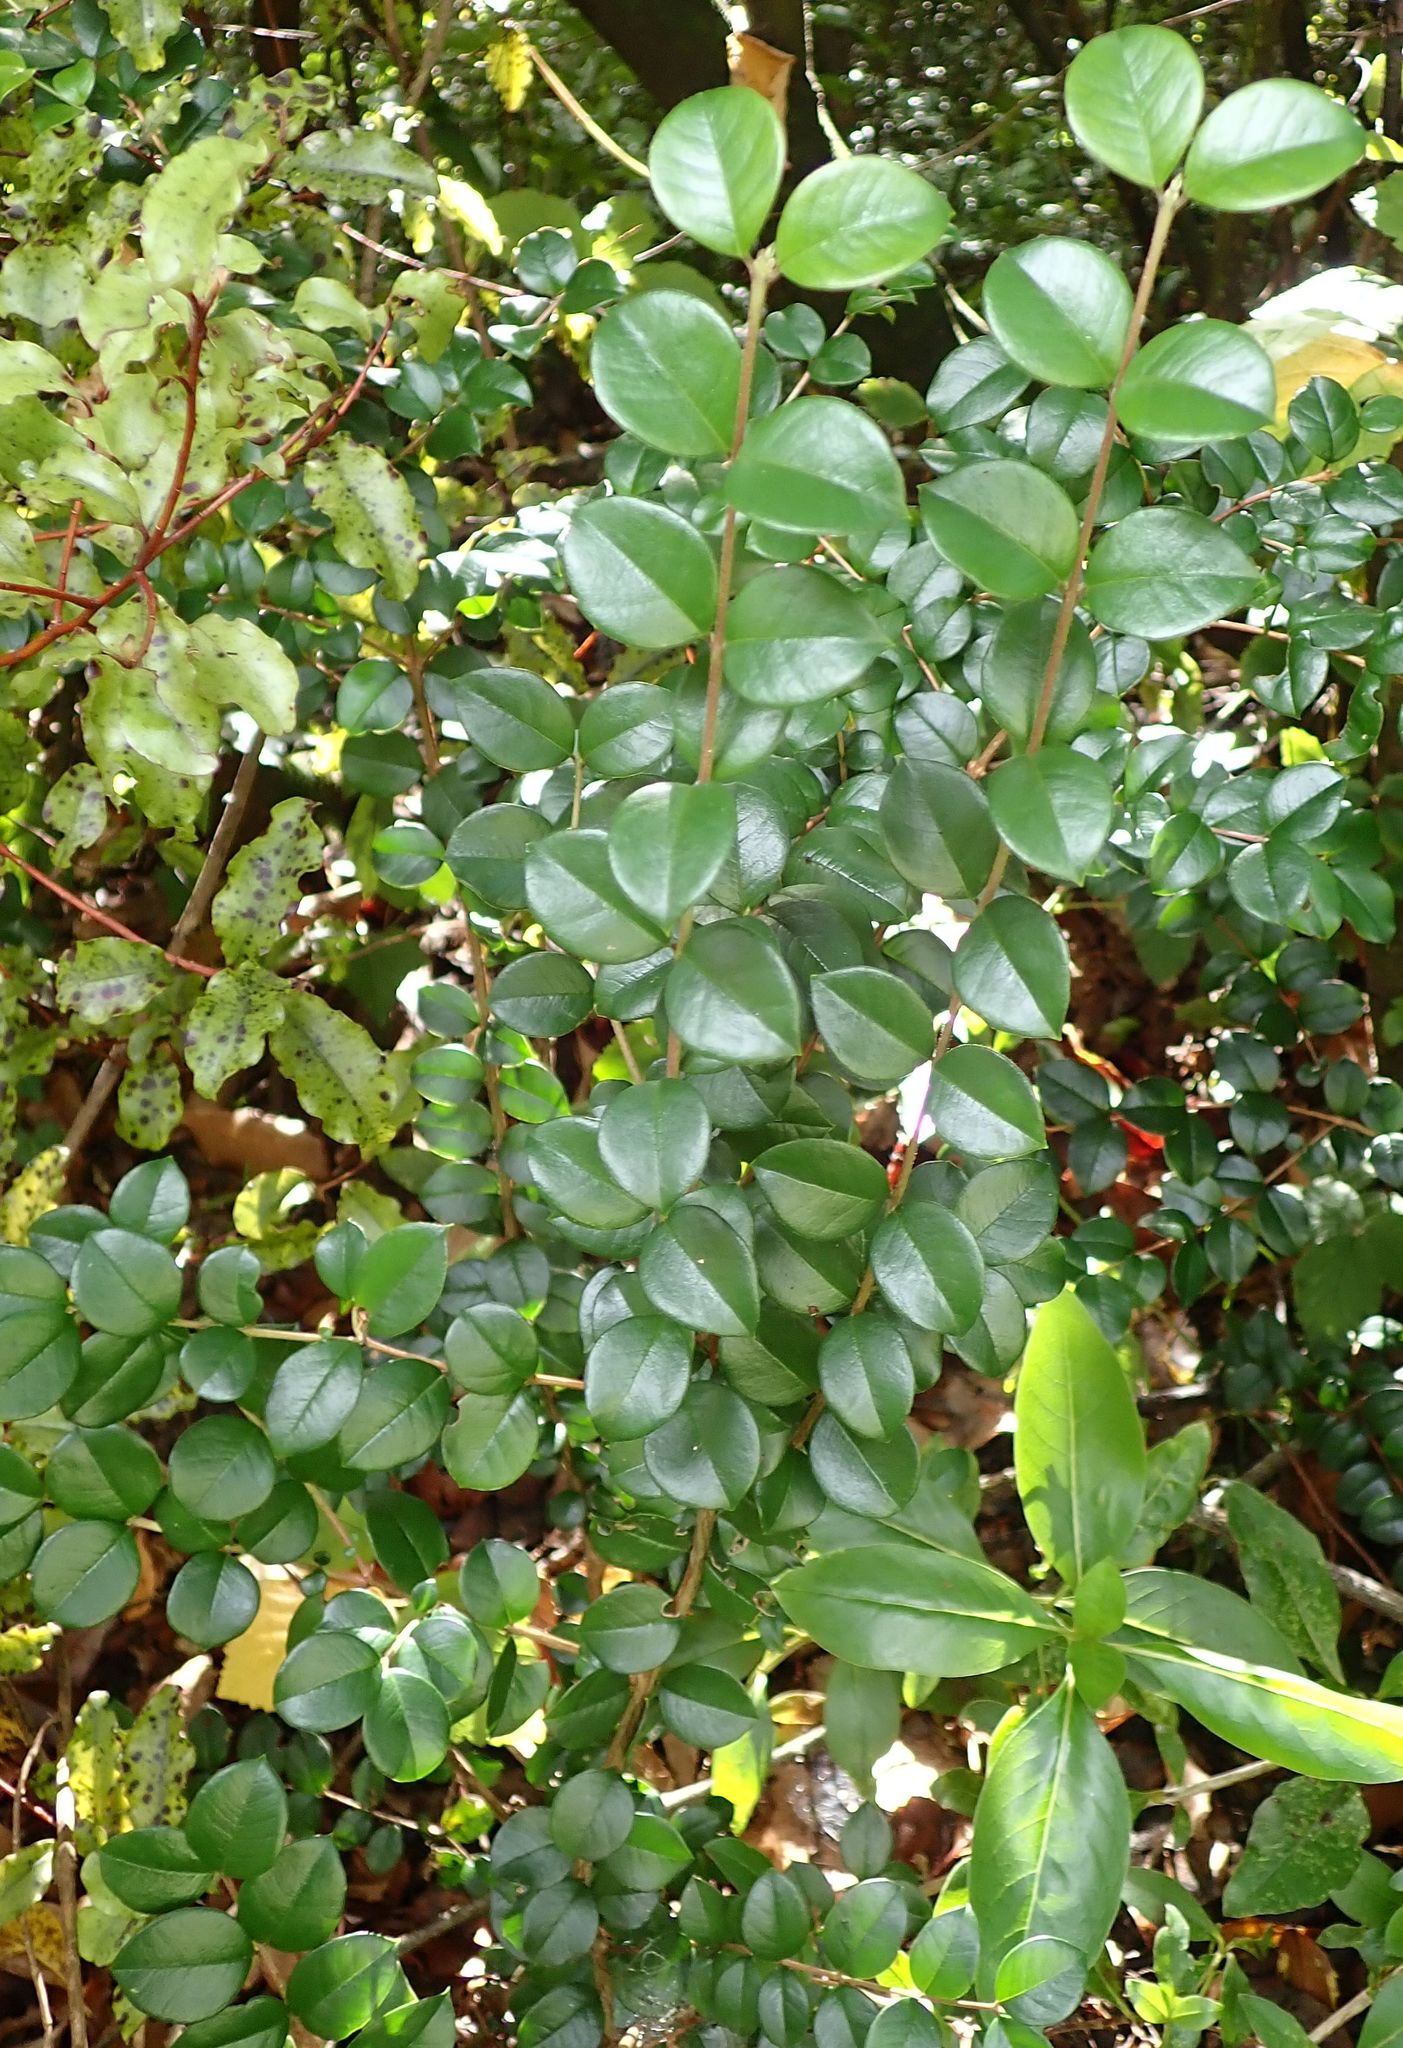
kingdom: Plantae
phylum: Tracheophyta
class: Magnoliopsida
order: Myrtales
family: Myrtaceae
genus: Luma
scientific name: Luma apiculata
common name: Chilean myrtle
